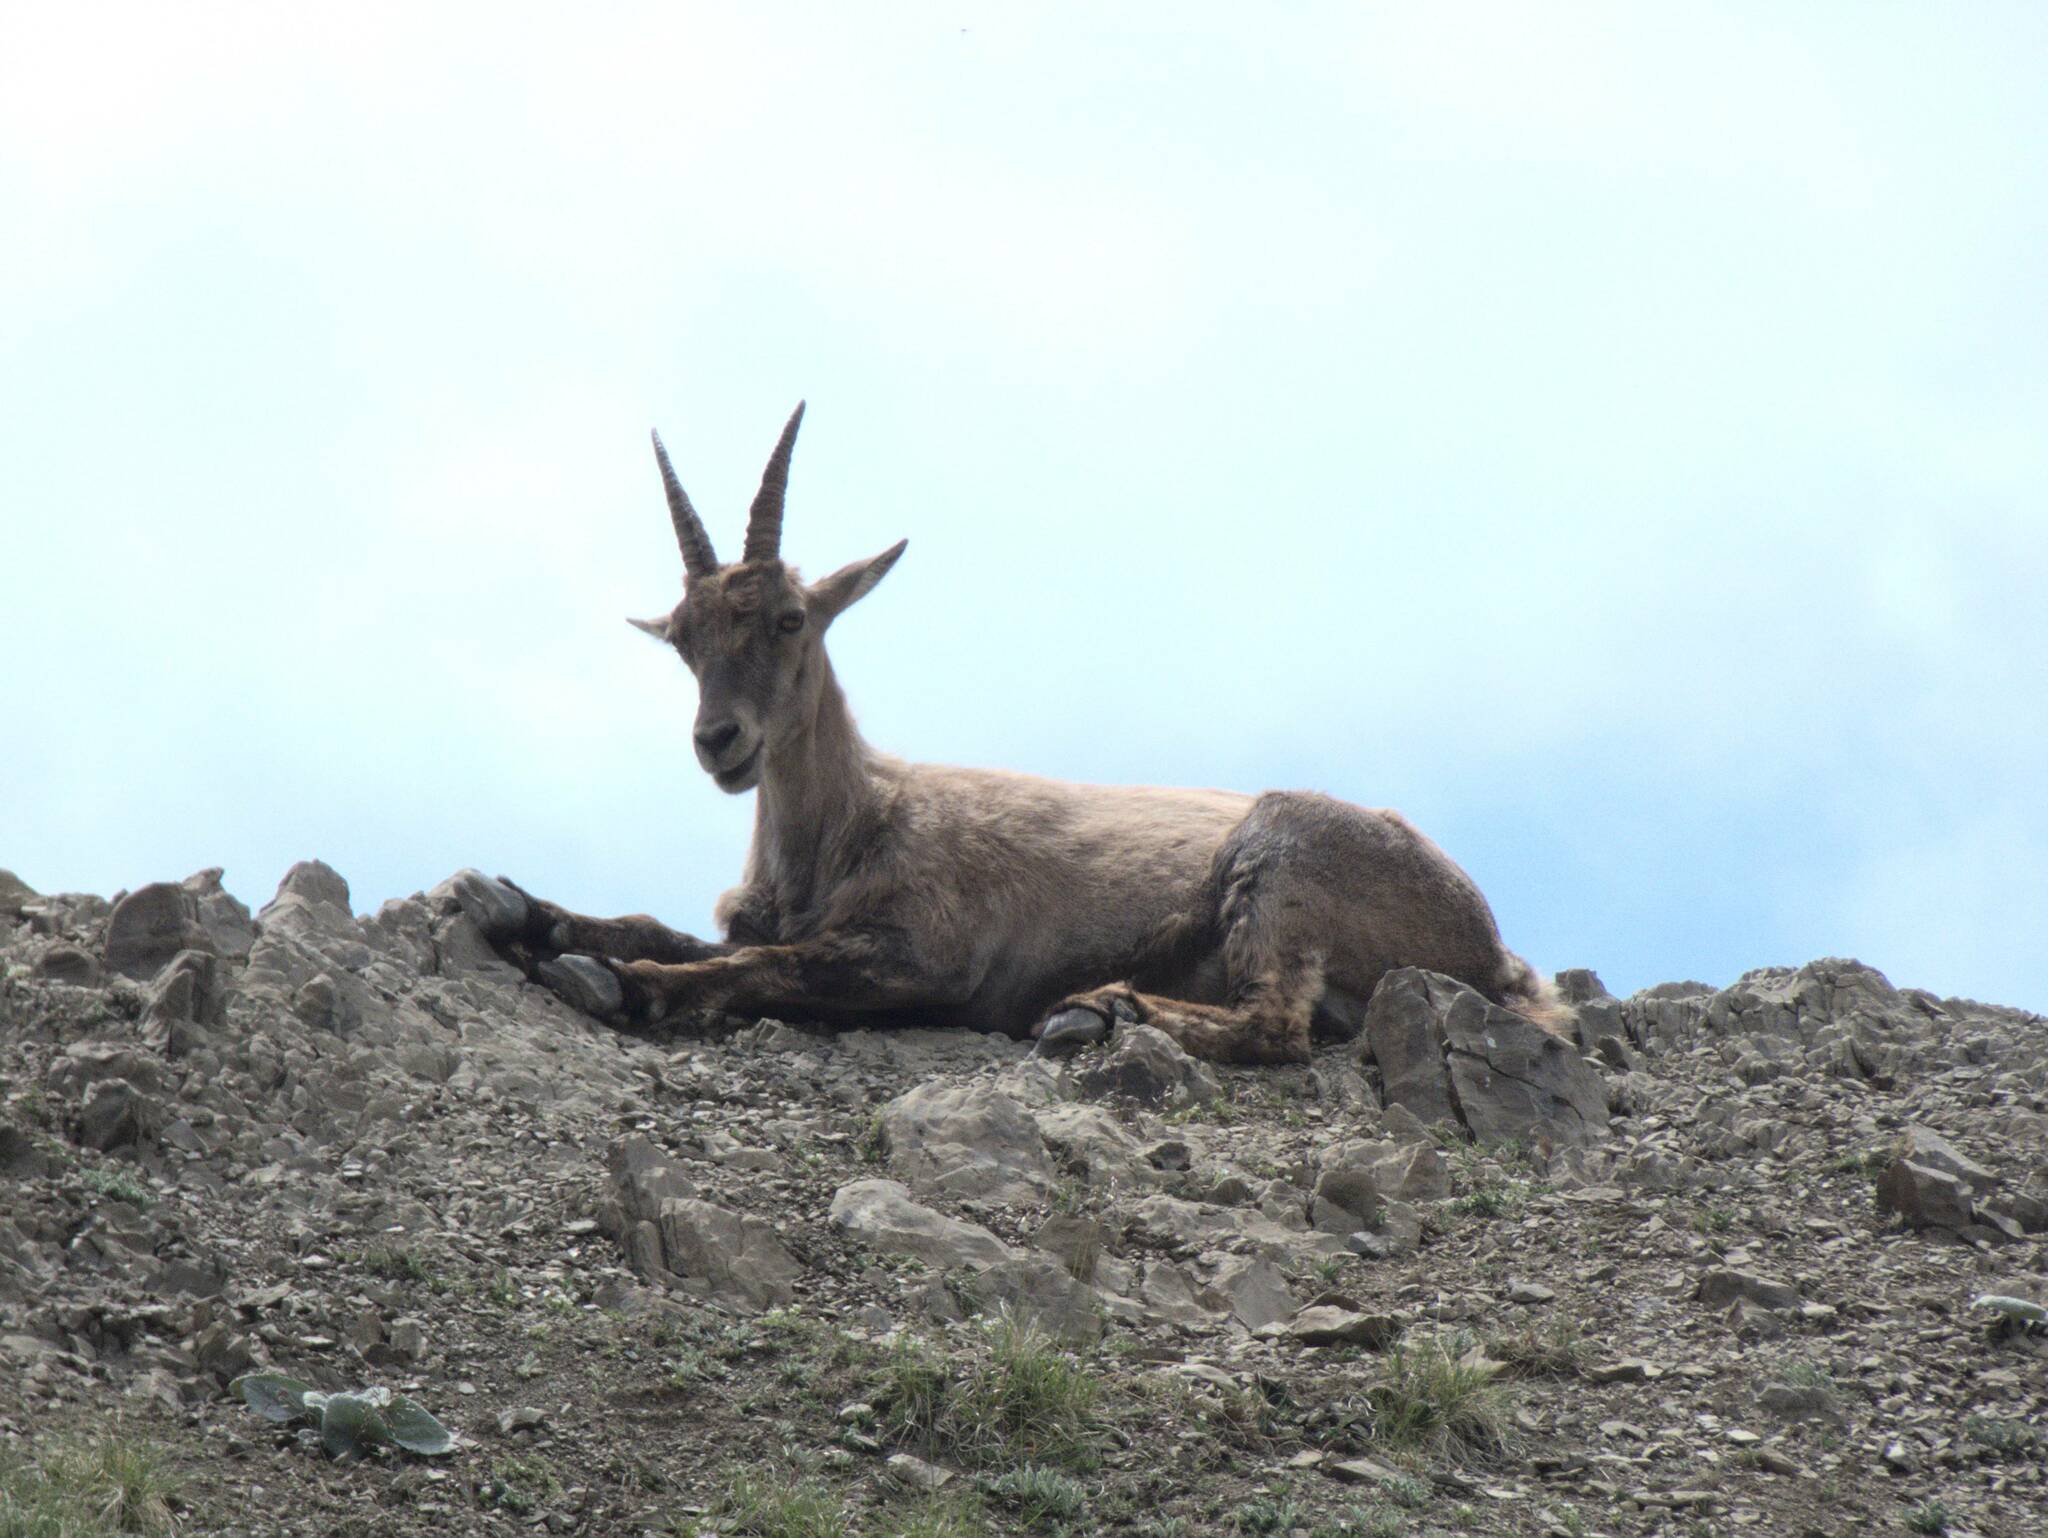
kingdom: Animalia
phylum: Chordata
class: Mammalia
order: Artiodactyla
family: Bovidae
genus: Capra
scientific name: Capra ibex
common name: Alpine ibex
